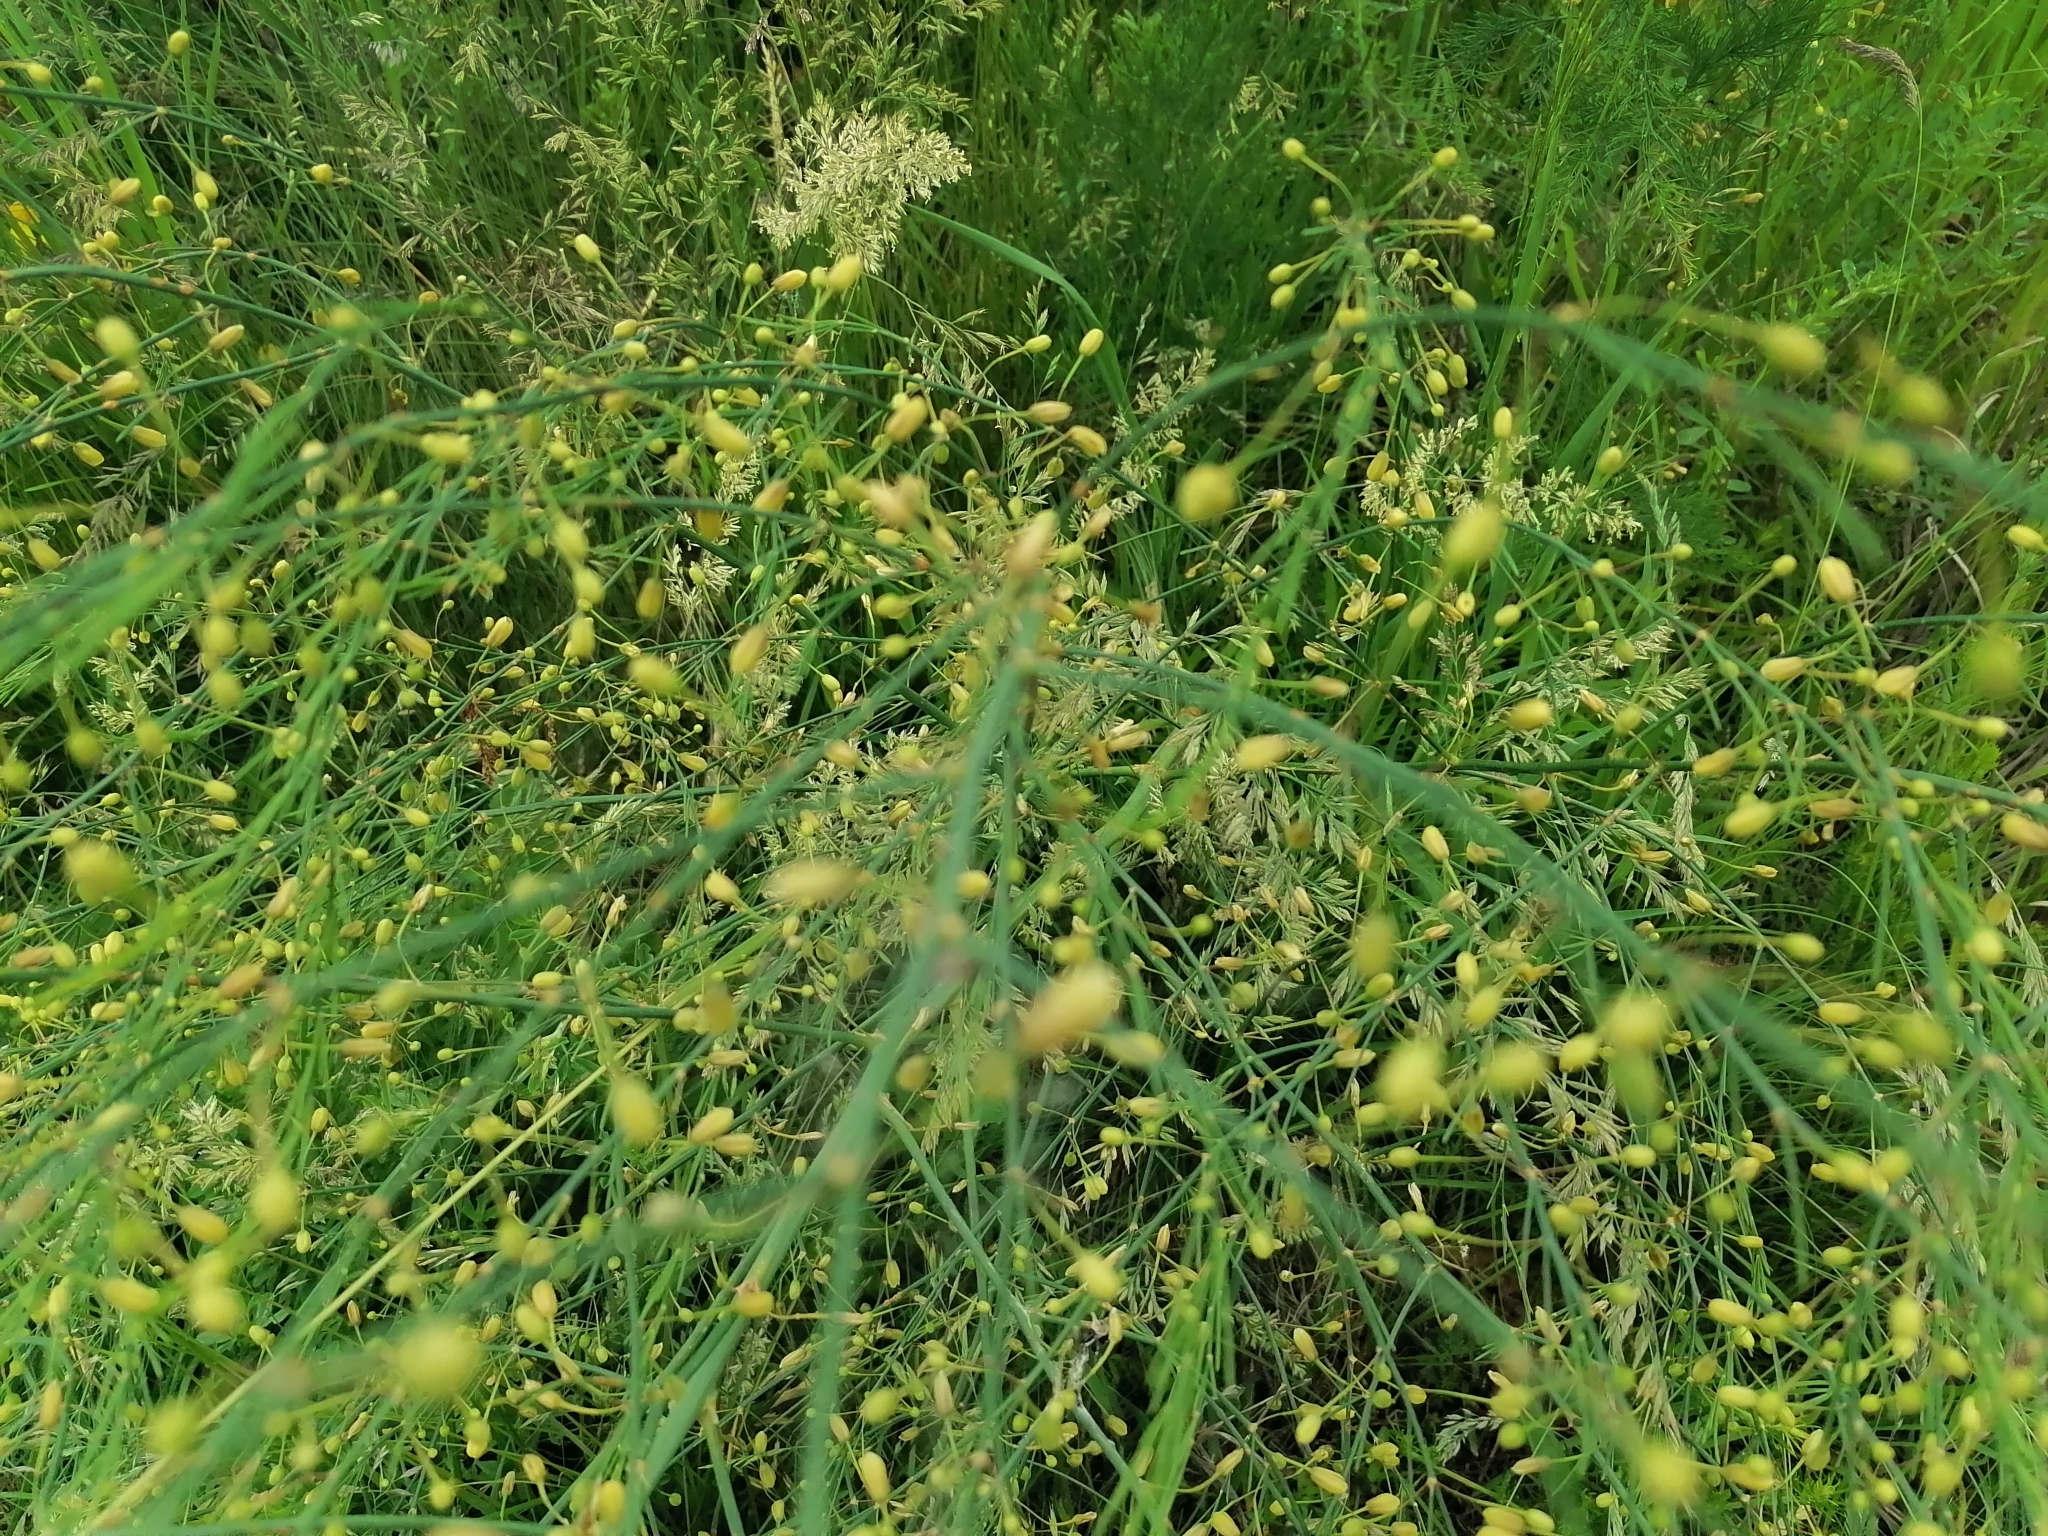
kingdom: Plantae
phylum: Tracheophyta
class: Liliopsida
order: Asparagales
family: Asparagaceae
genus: Asparagus
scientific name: Asparagus officinalis
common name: Garden asparagus
